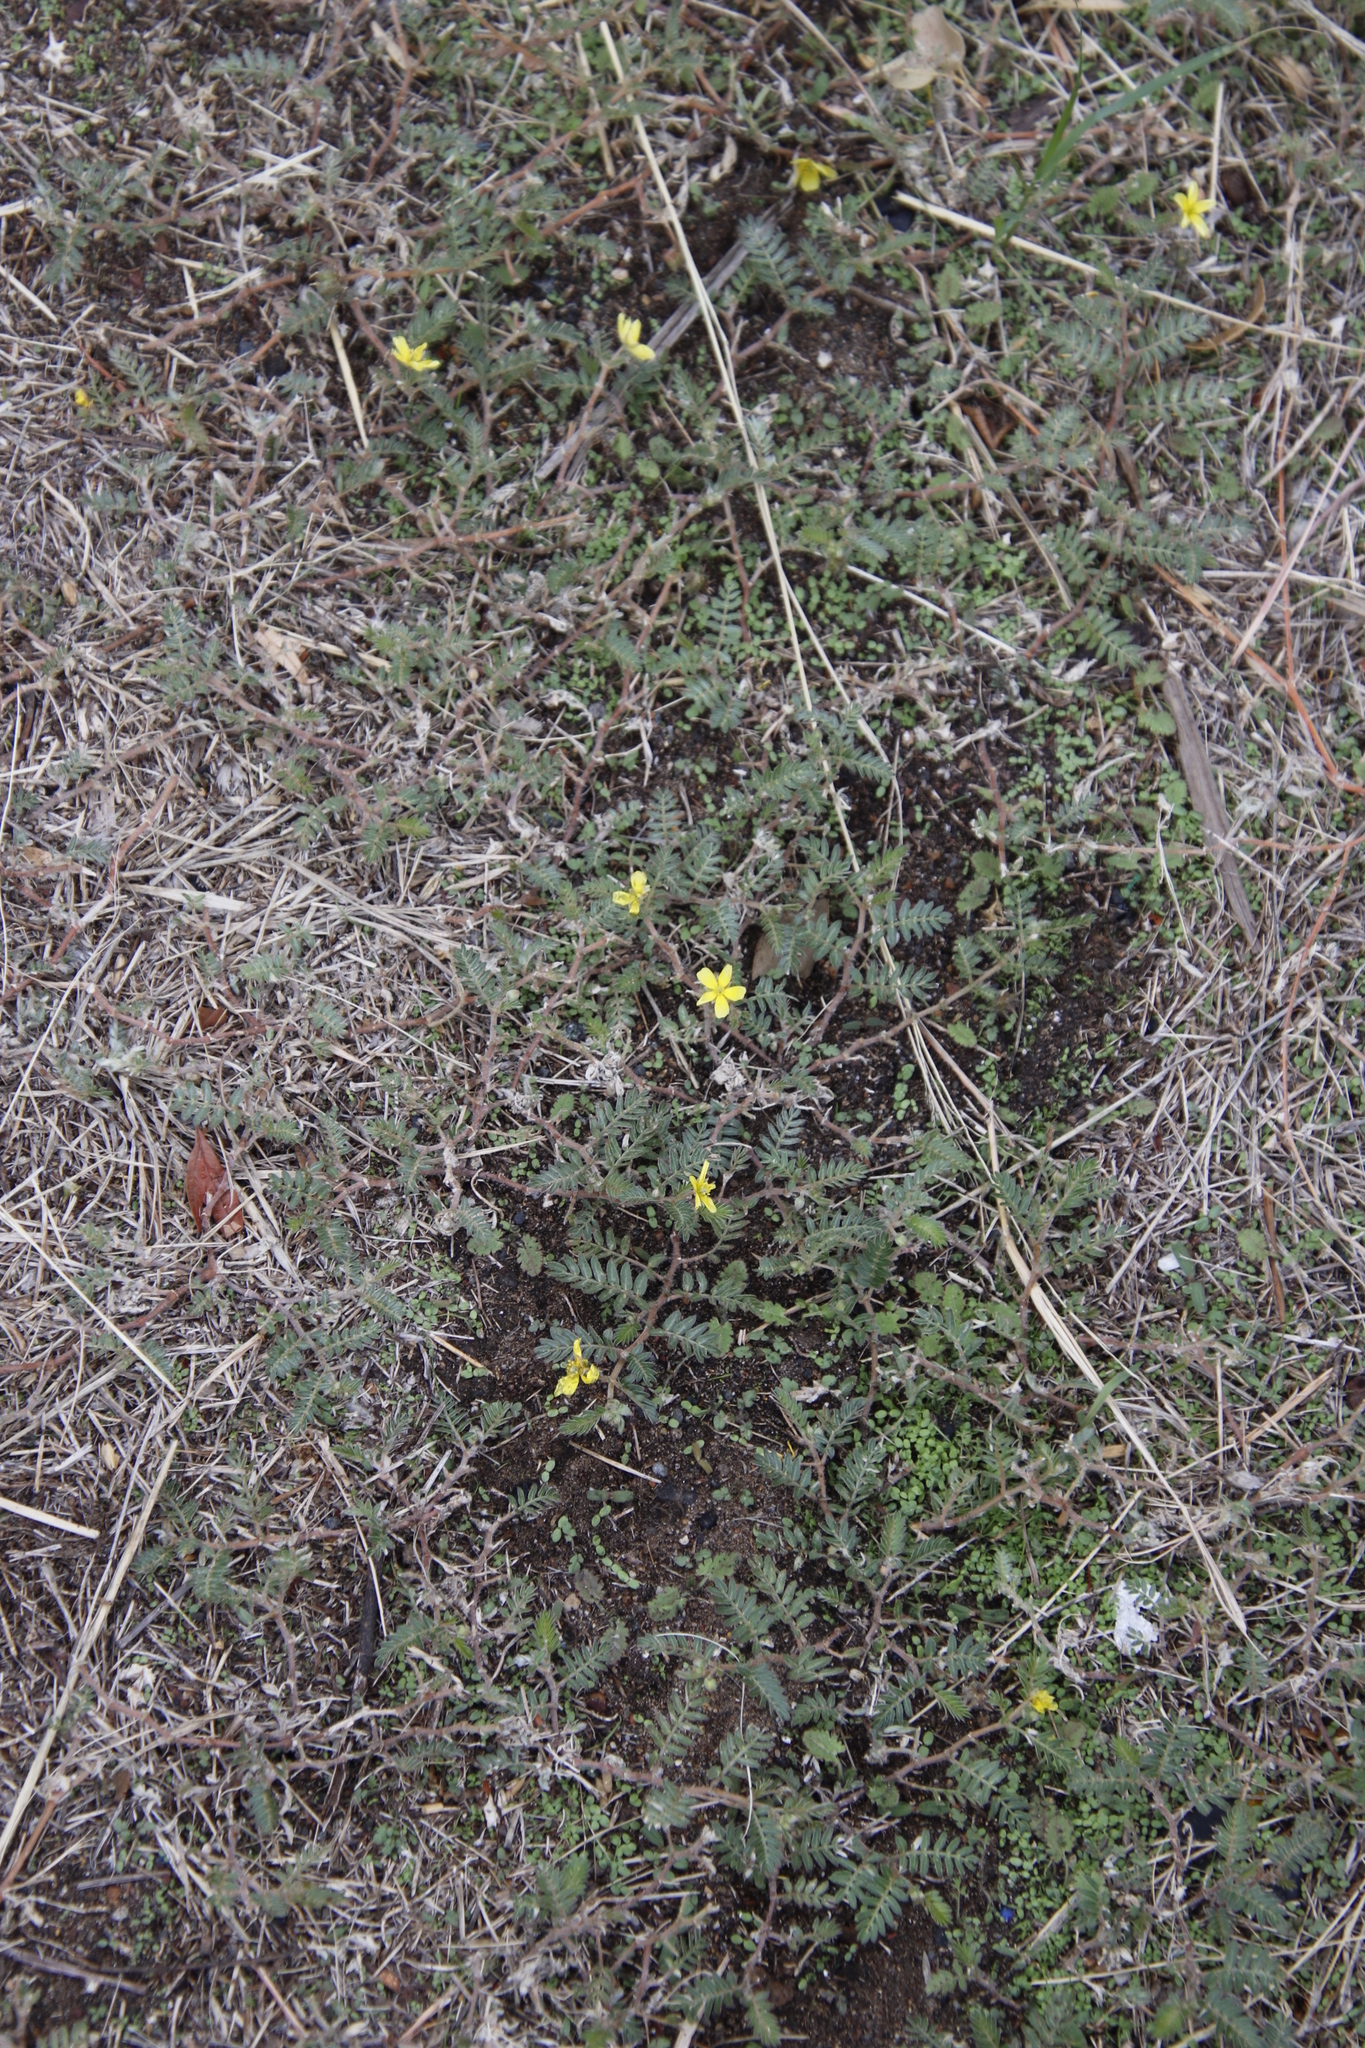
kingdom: Plantae
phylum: Tracheophyta
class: Magnoliopsida
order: Zygophyllales
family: Zygophyllaceae
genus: Tribulus
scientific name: Tribulus terrestris
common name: Puncturevine
